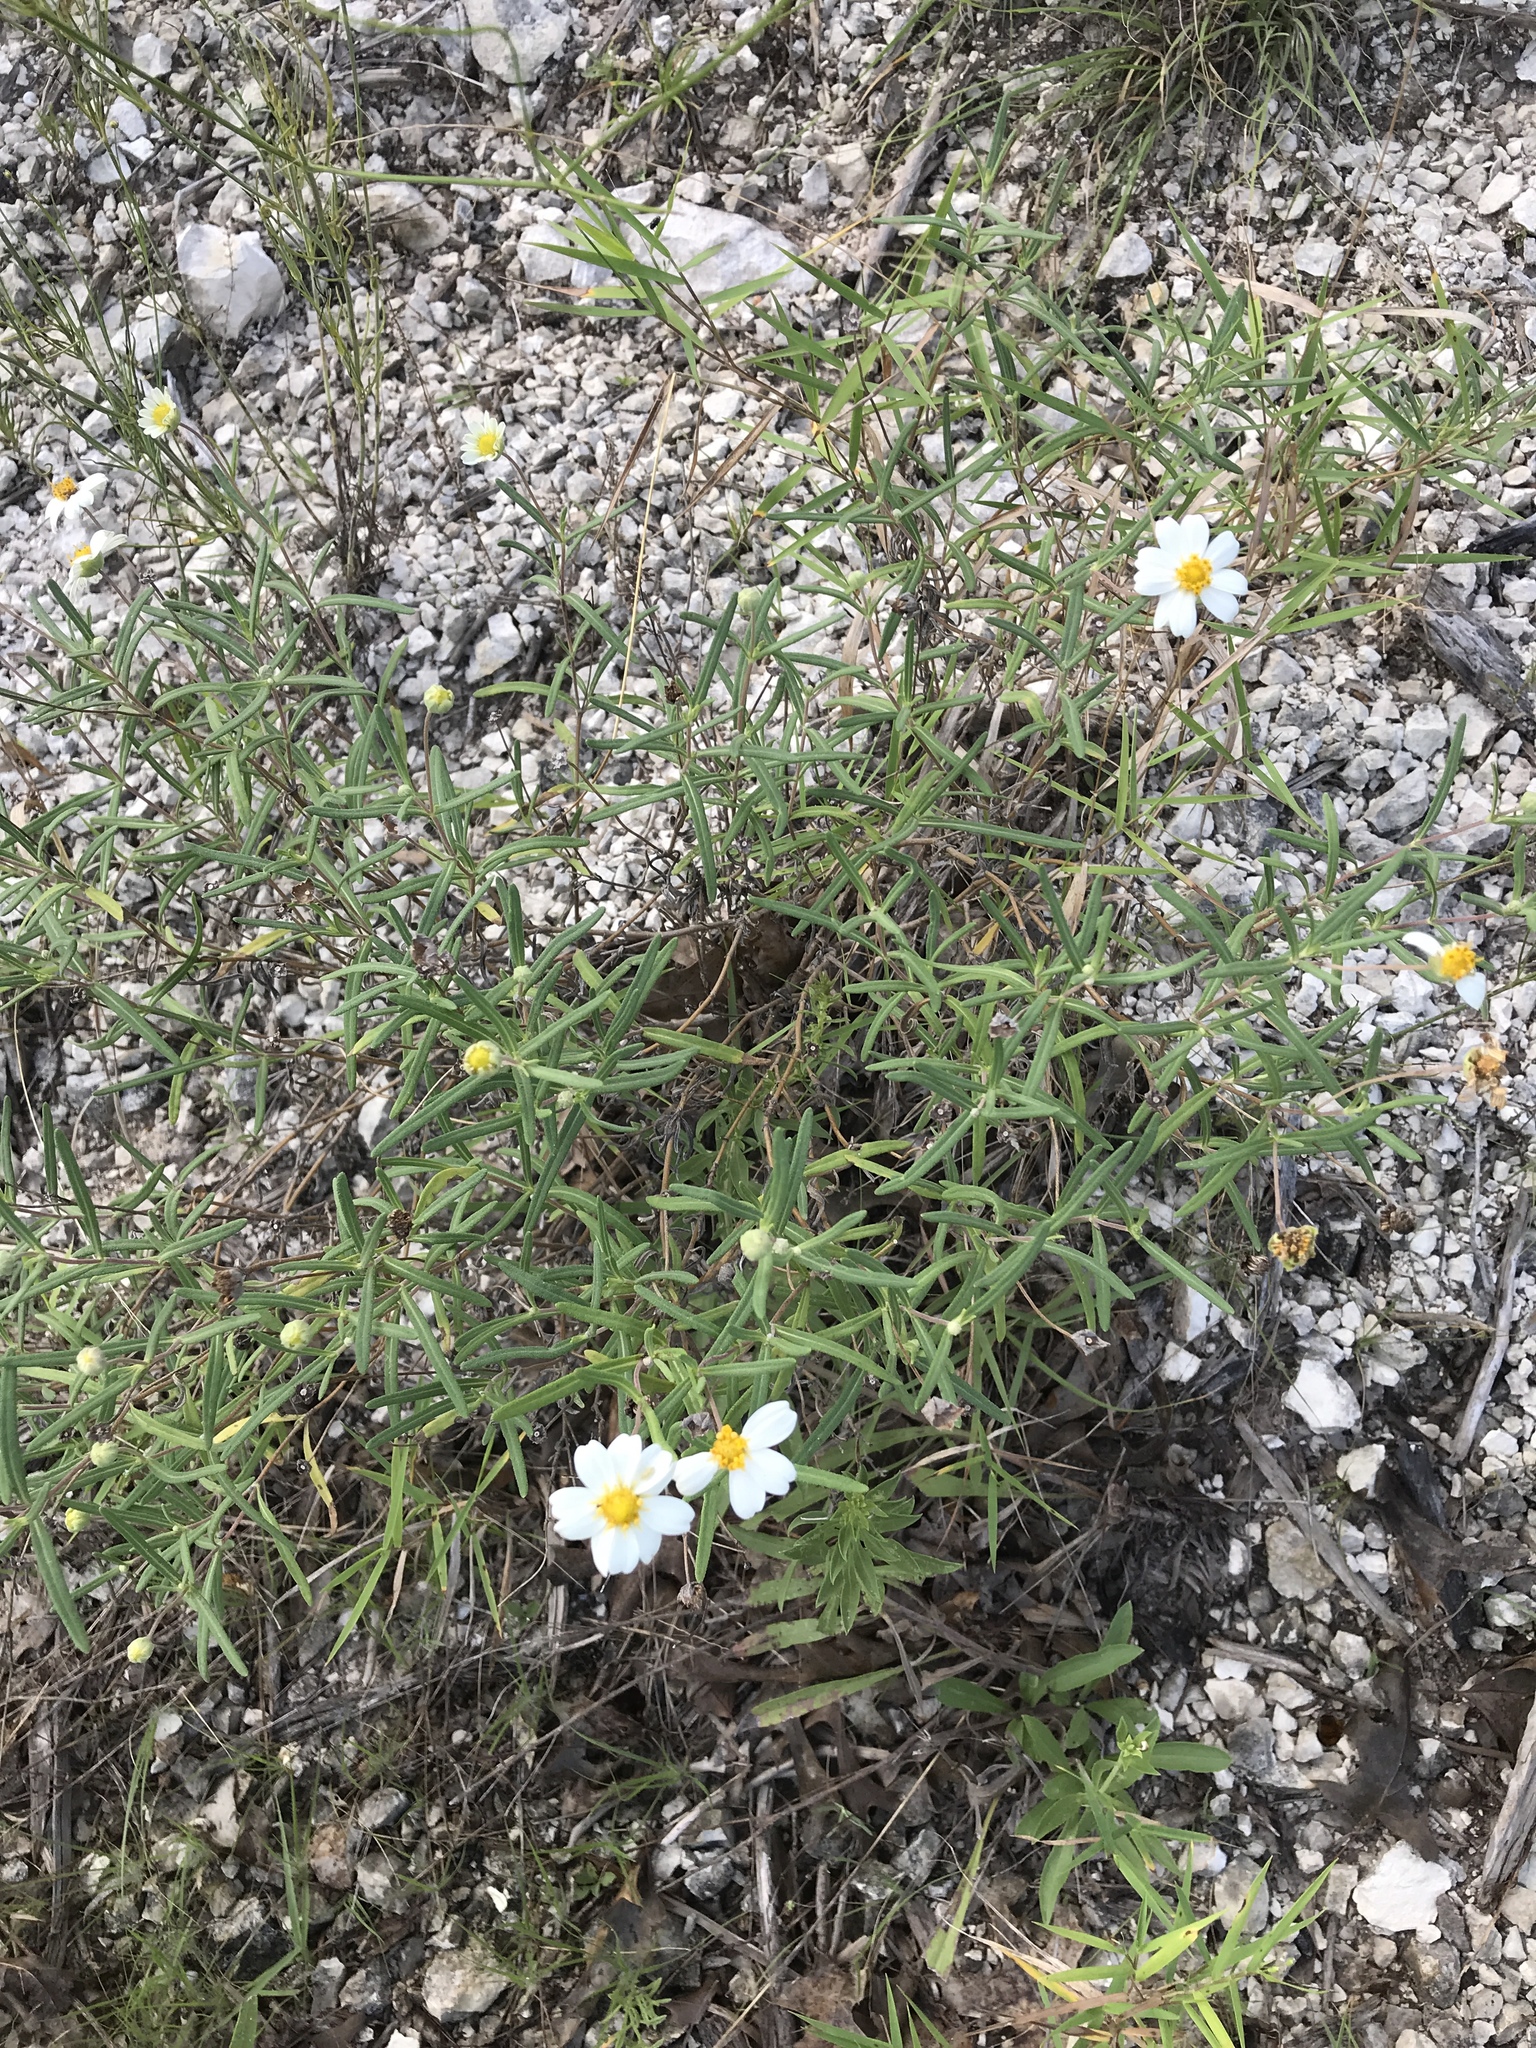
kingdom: Plantae
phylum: Tracheophyta
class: Magnoliopsida
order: Asterales
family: Asteraceae
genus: Melampodium
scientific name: Melampodium leucanthum
